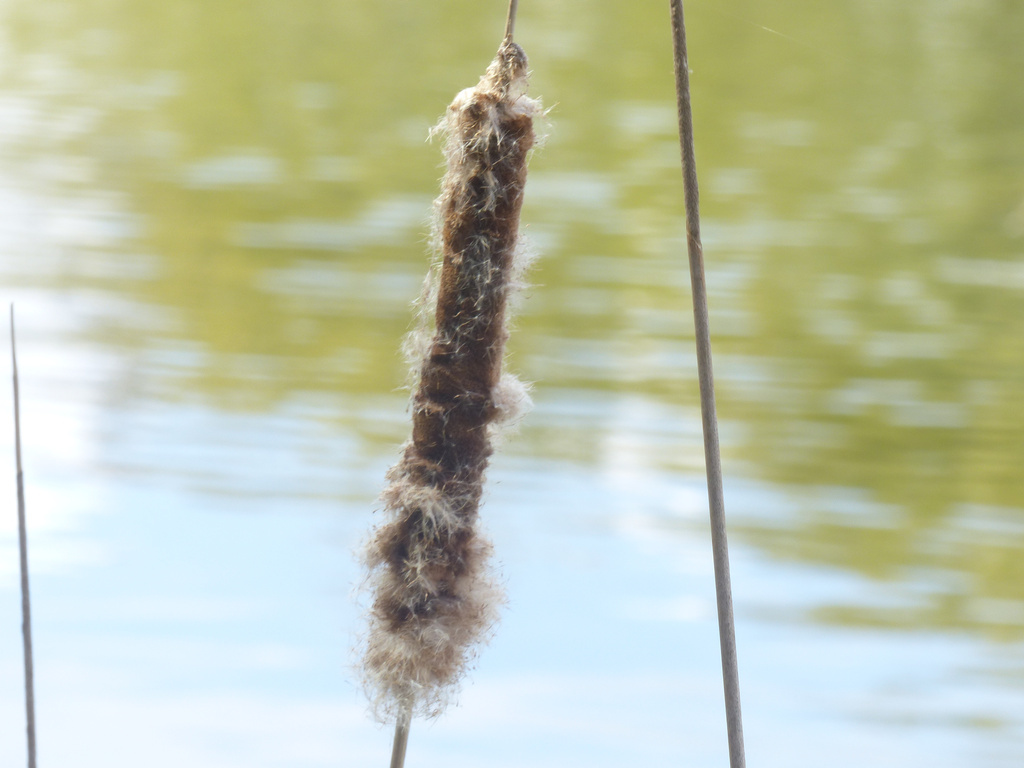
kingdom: Plantae
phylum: Tracheophyta
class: Liliopsida
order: Poales
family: Typhaceae
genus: Typha
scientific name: Typha latifolia
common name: Broadleaf cattail
